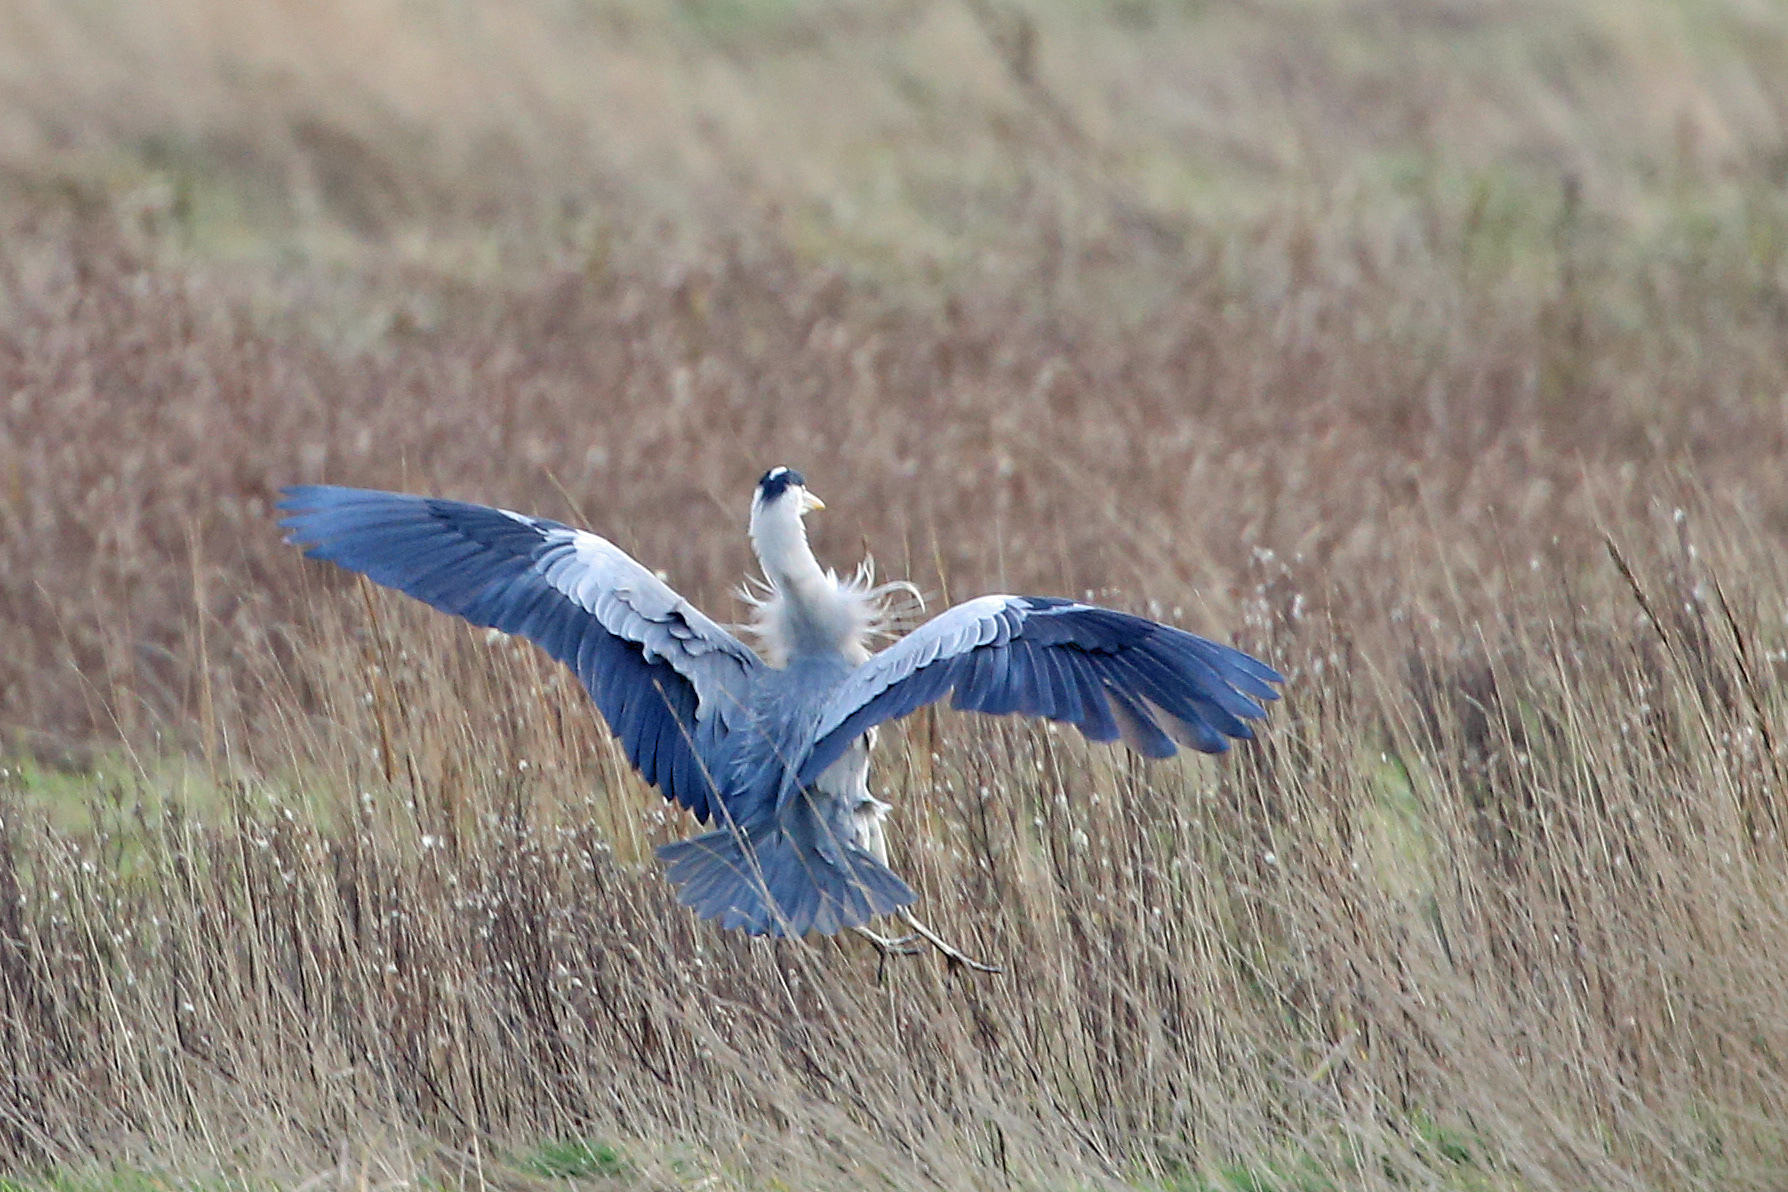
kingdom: Animalia
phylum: Chordata
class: Aves
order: Pelecaniformes
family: Ardeidae
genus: Ardea
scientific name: Ardea cinerea
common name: Grey heron
